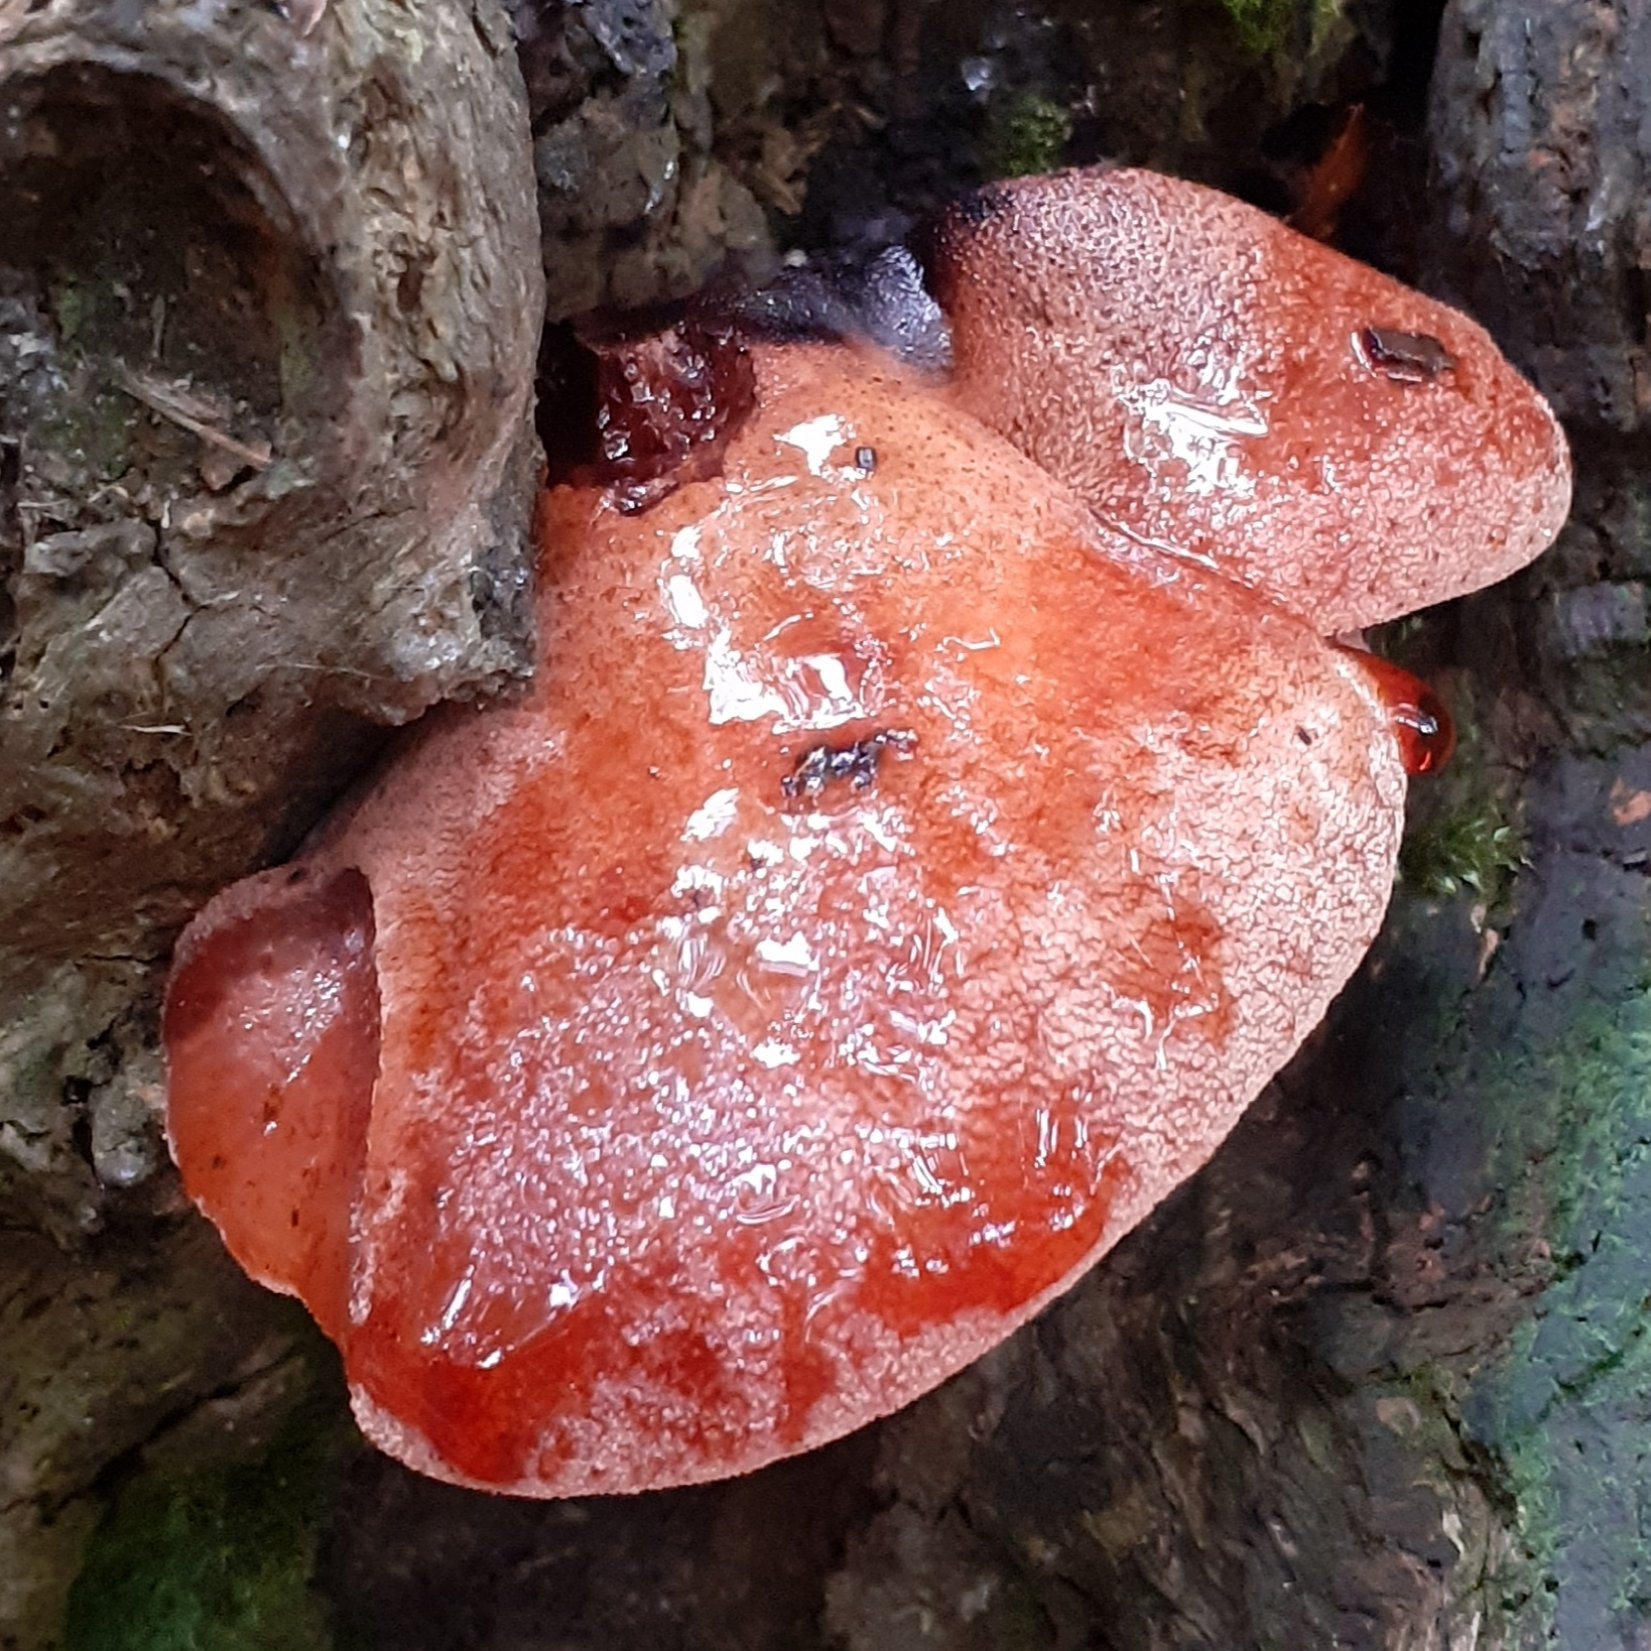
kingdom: Fungi
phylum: Basidiomycota
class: Agaricomycetes
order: Agaricales
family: Fistulinaceae
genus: Fistulina
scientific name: Fistulina hepatica
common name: Beef-steak fungus
